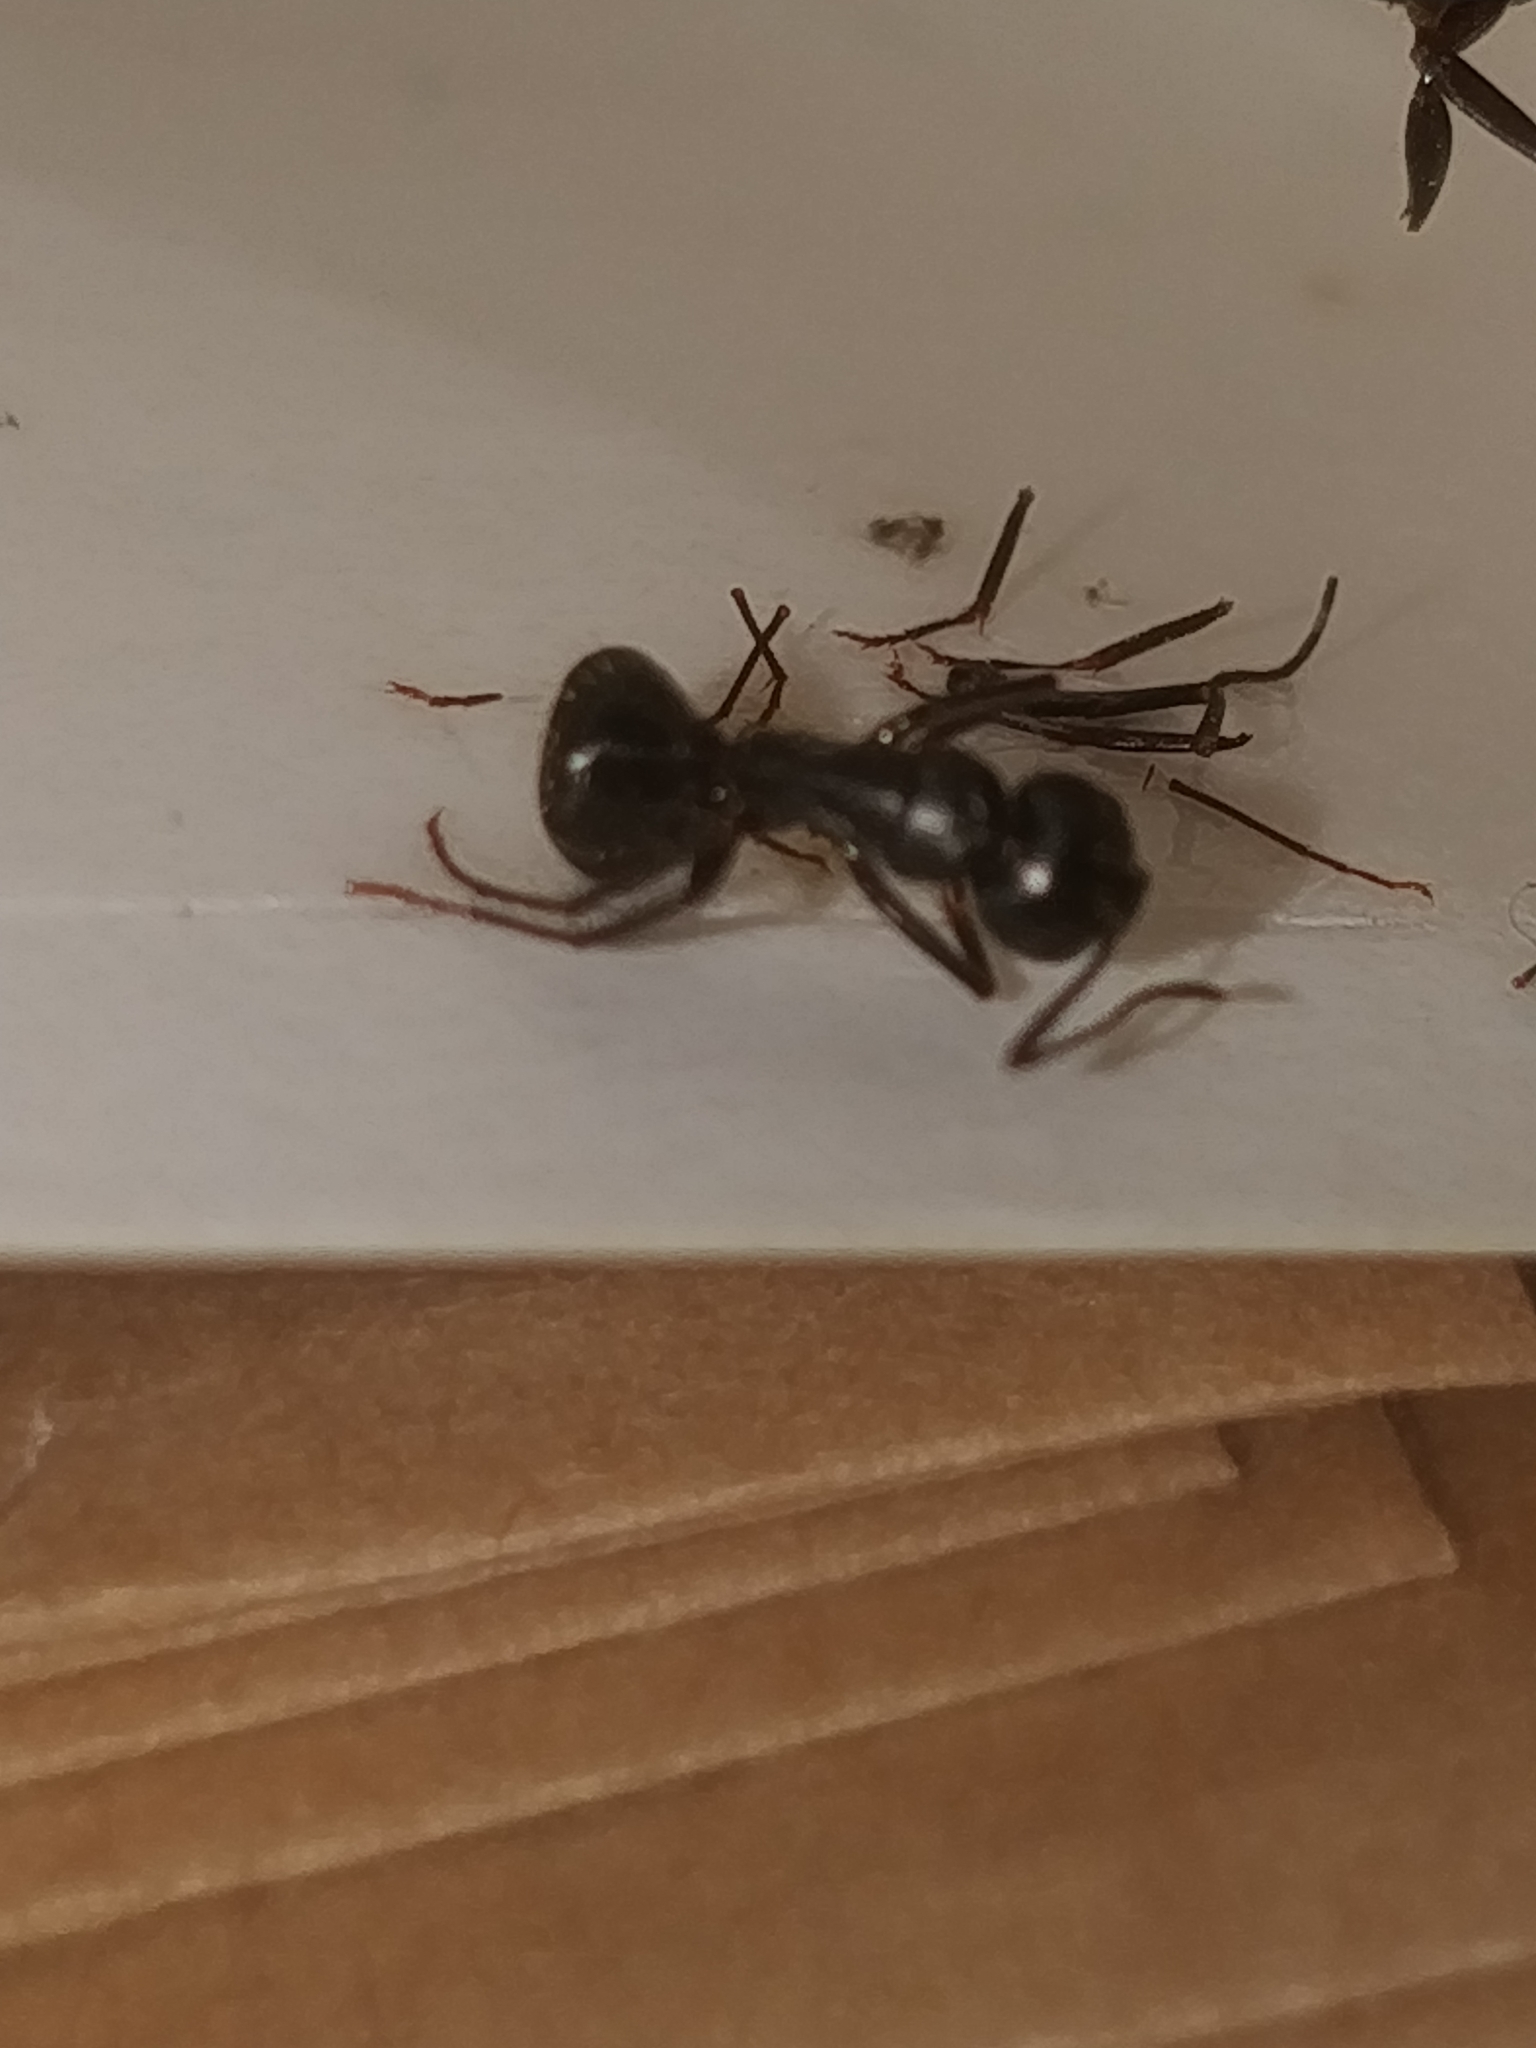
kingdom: Animalia
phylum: Arthropoda
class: Insecta
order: Hymenoptera
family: Formicidae
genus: Camponotus
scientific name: Camponotus pennsylvanicus
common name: Black carpenter ant
